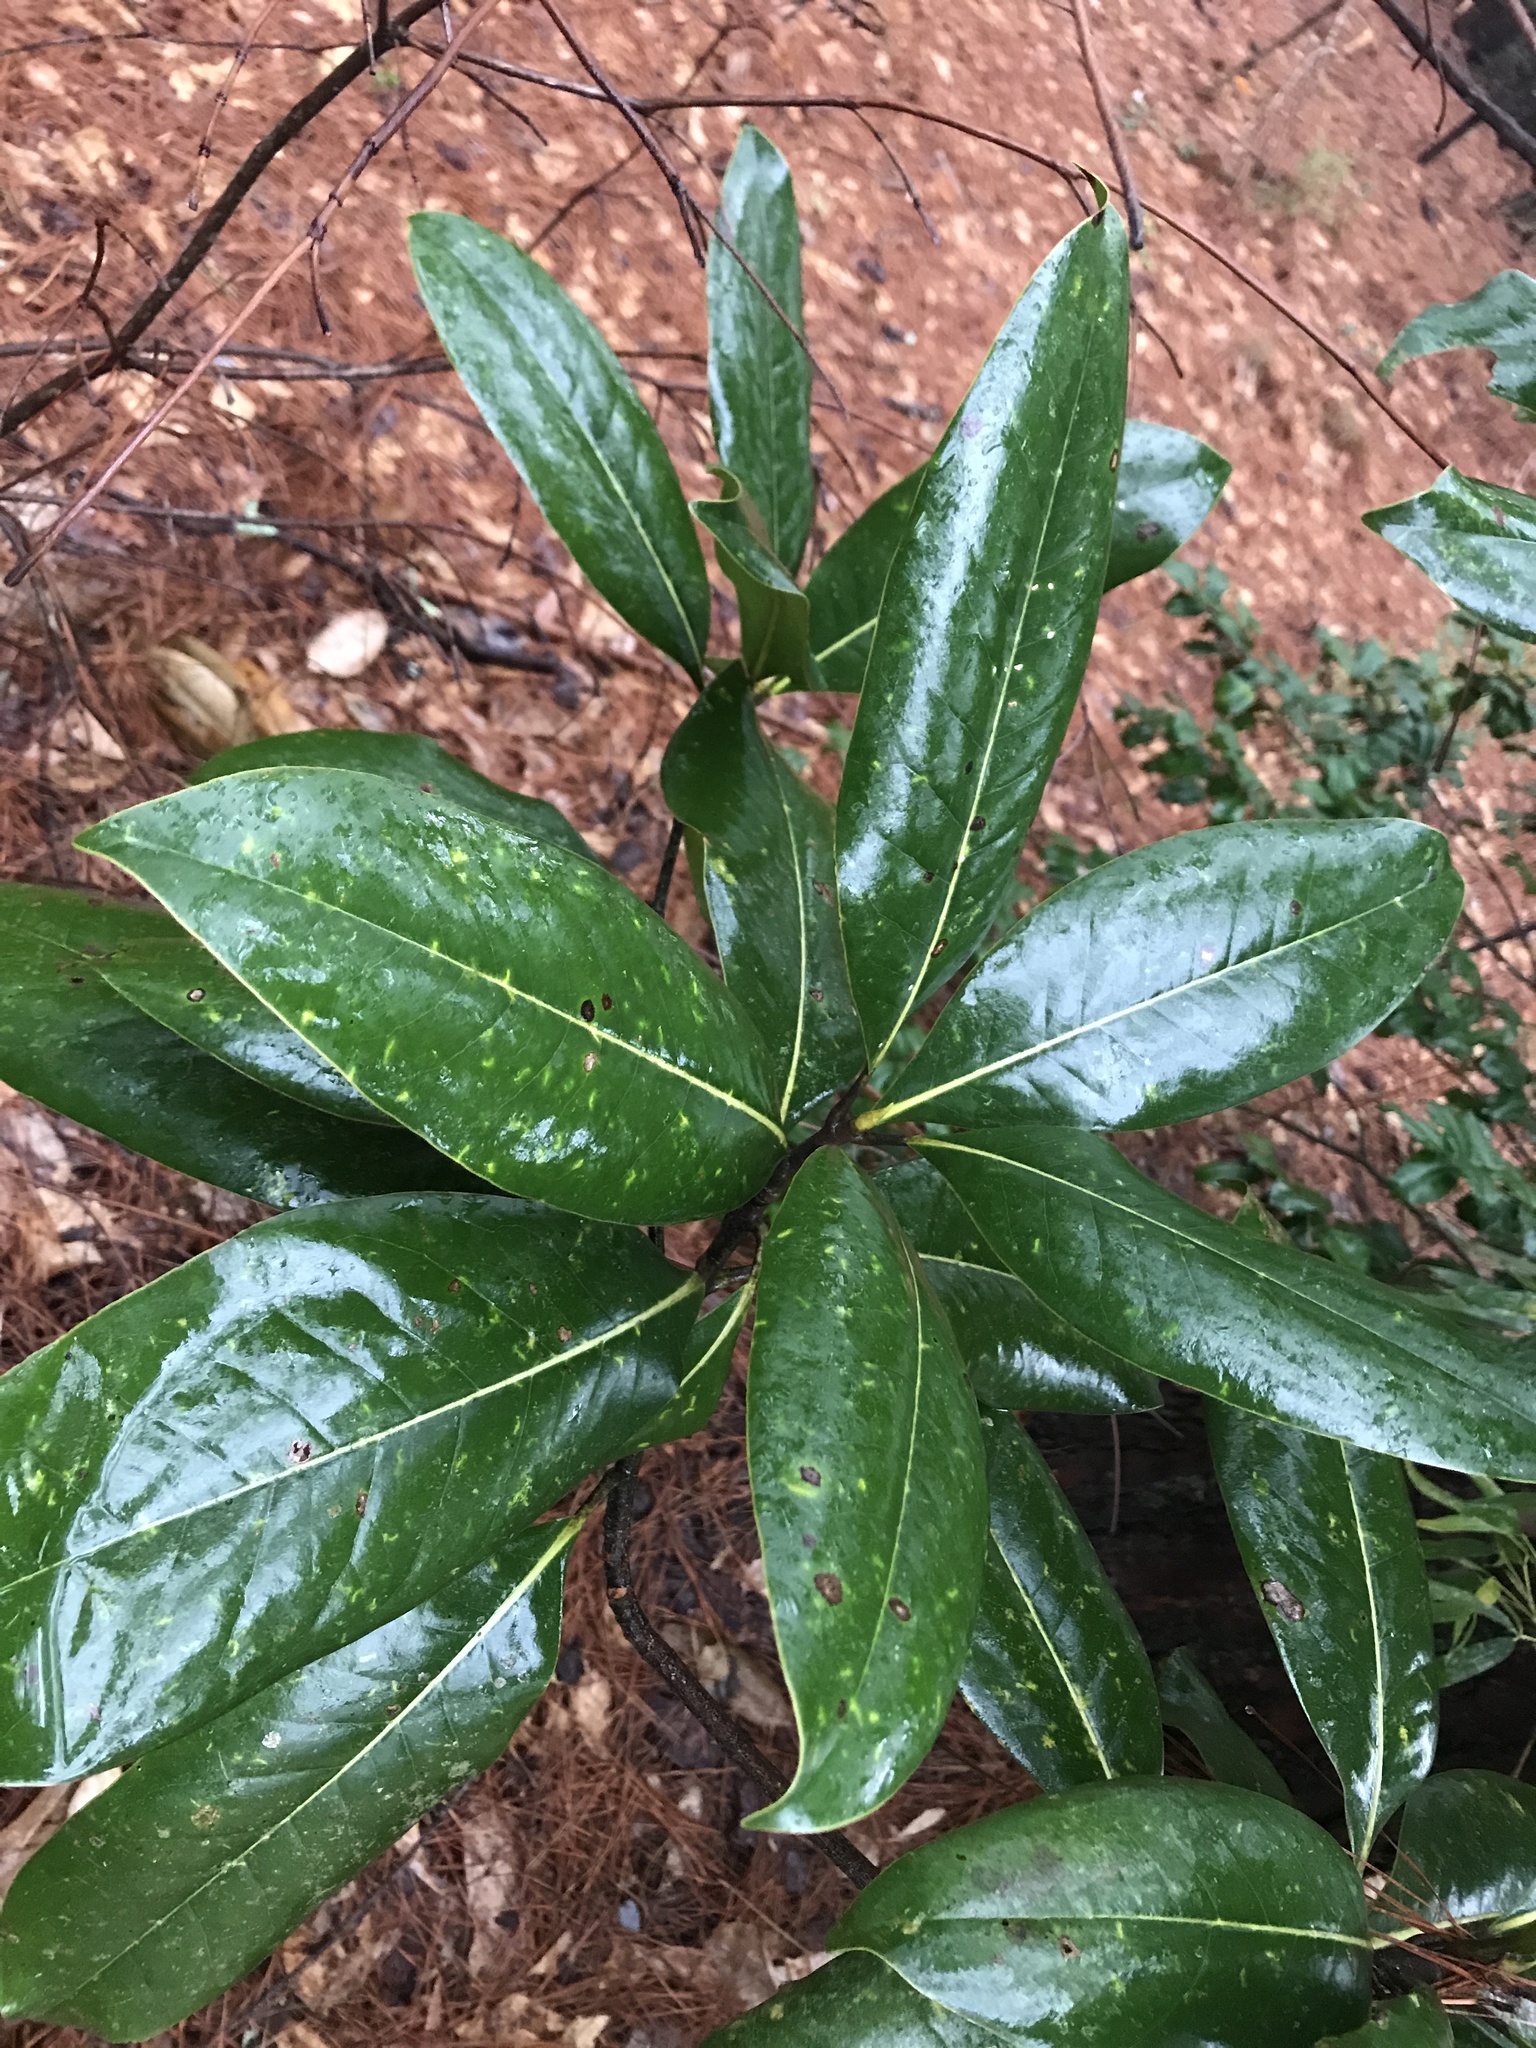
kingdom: Plantae
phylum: Tracheophyta
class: Magnoliopsida
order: Magnoliales
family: Magnoliaceae
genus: Magnolia
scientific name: Magnolia grandiflora
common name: Southern magnolia
